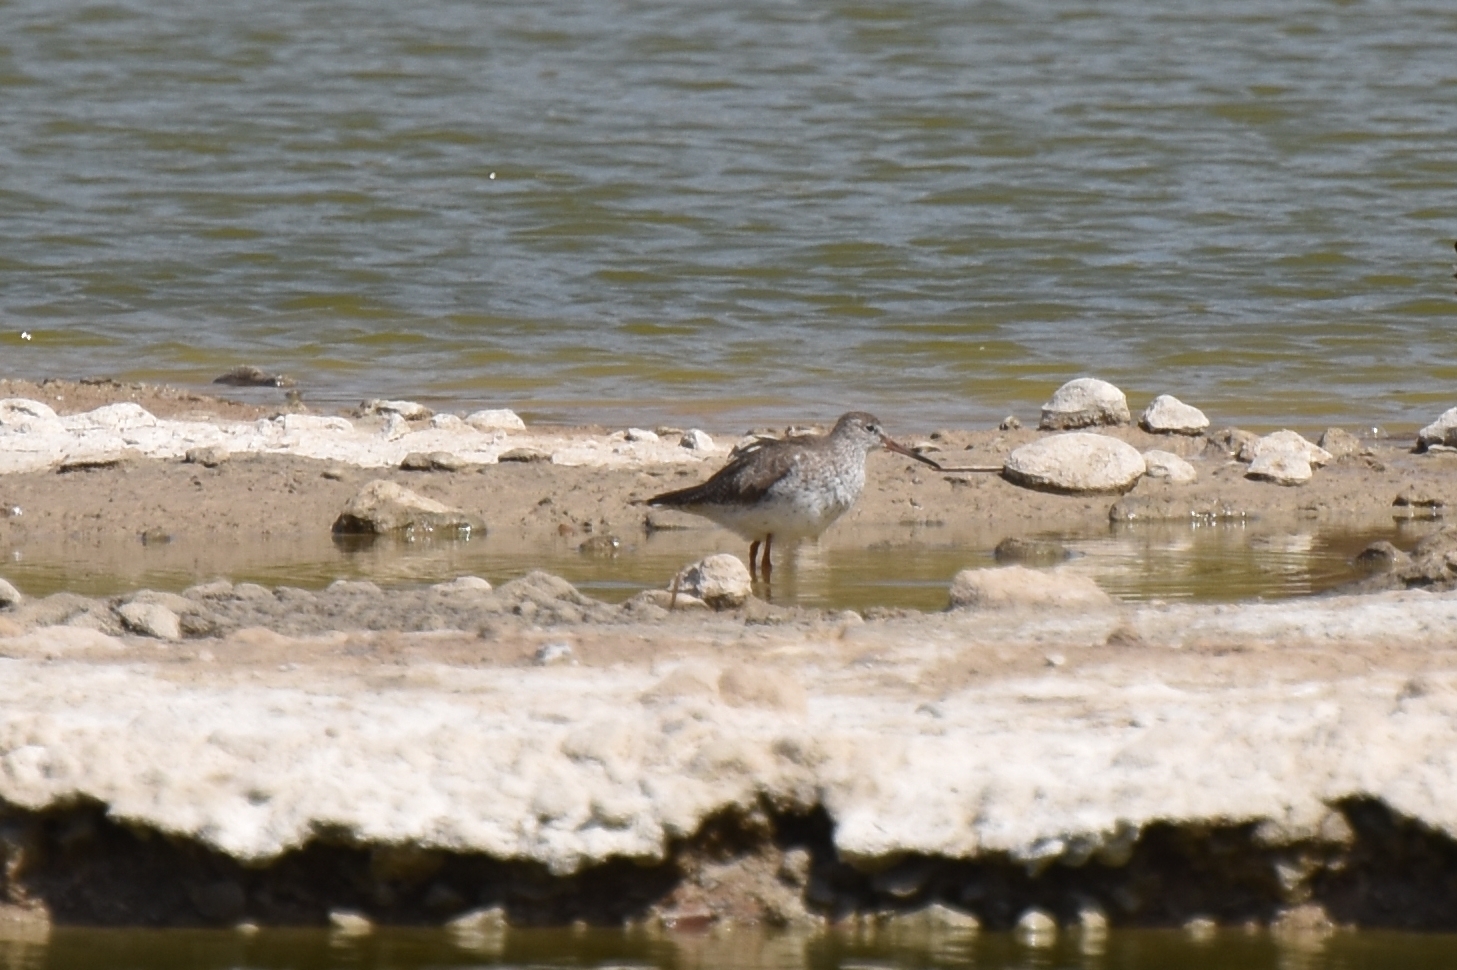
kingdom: Animalia
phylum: Chordata
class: Aves
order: Charadriiformes
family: Scolopacidae
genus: Tringa
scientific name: Tringa totanus
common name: Common redshank
